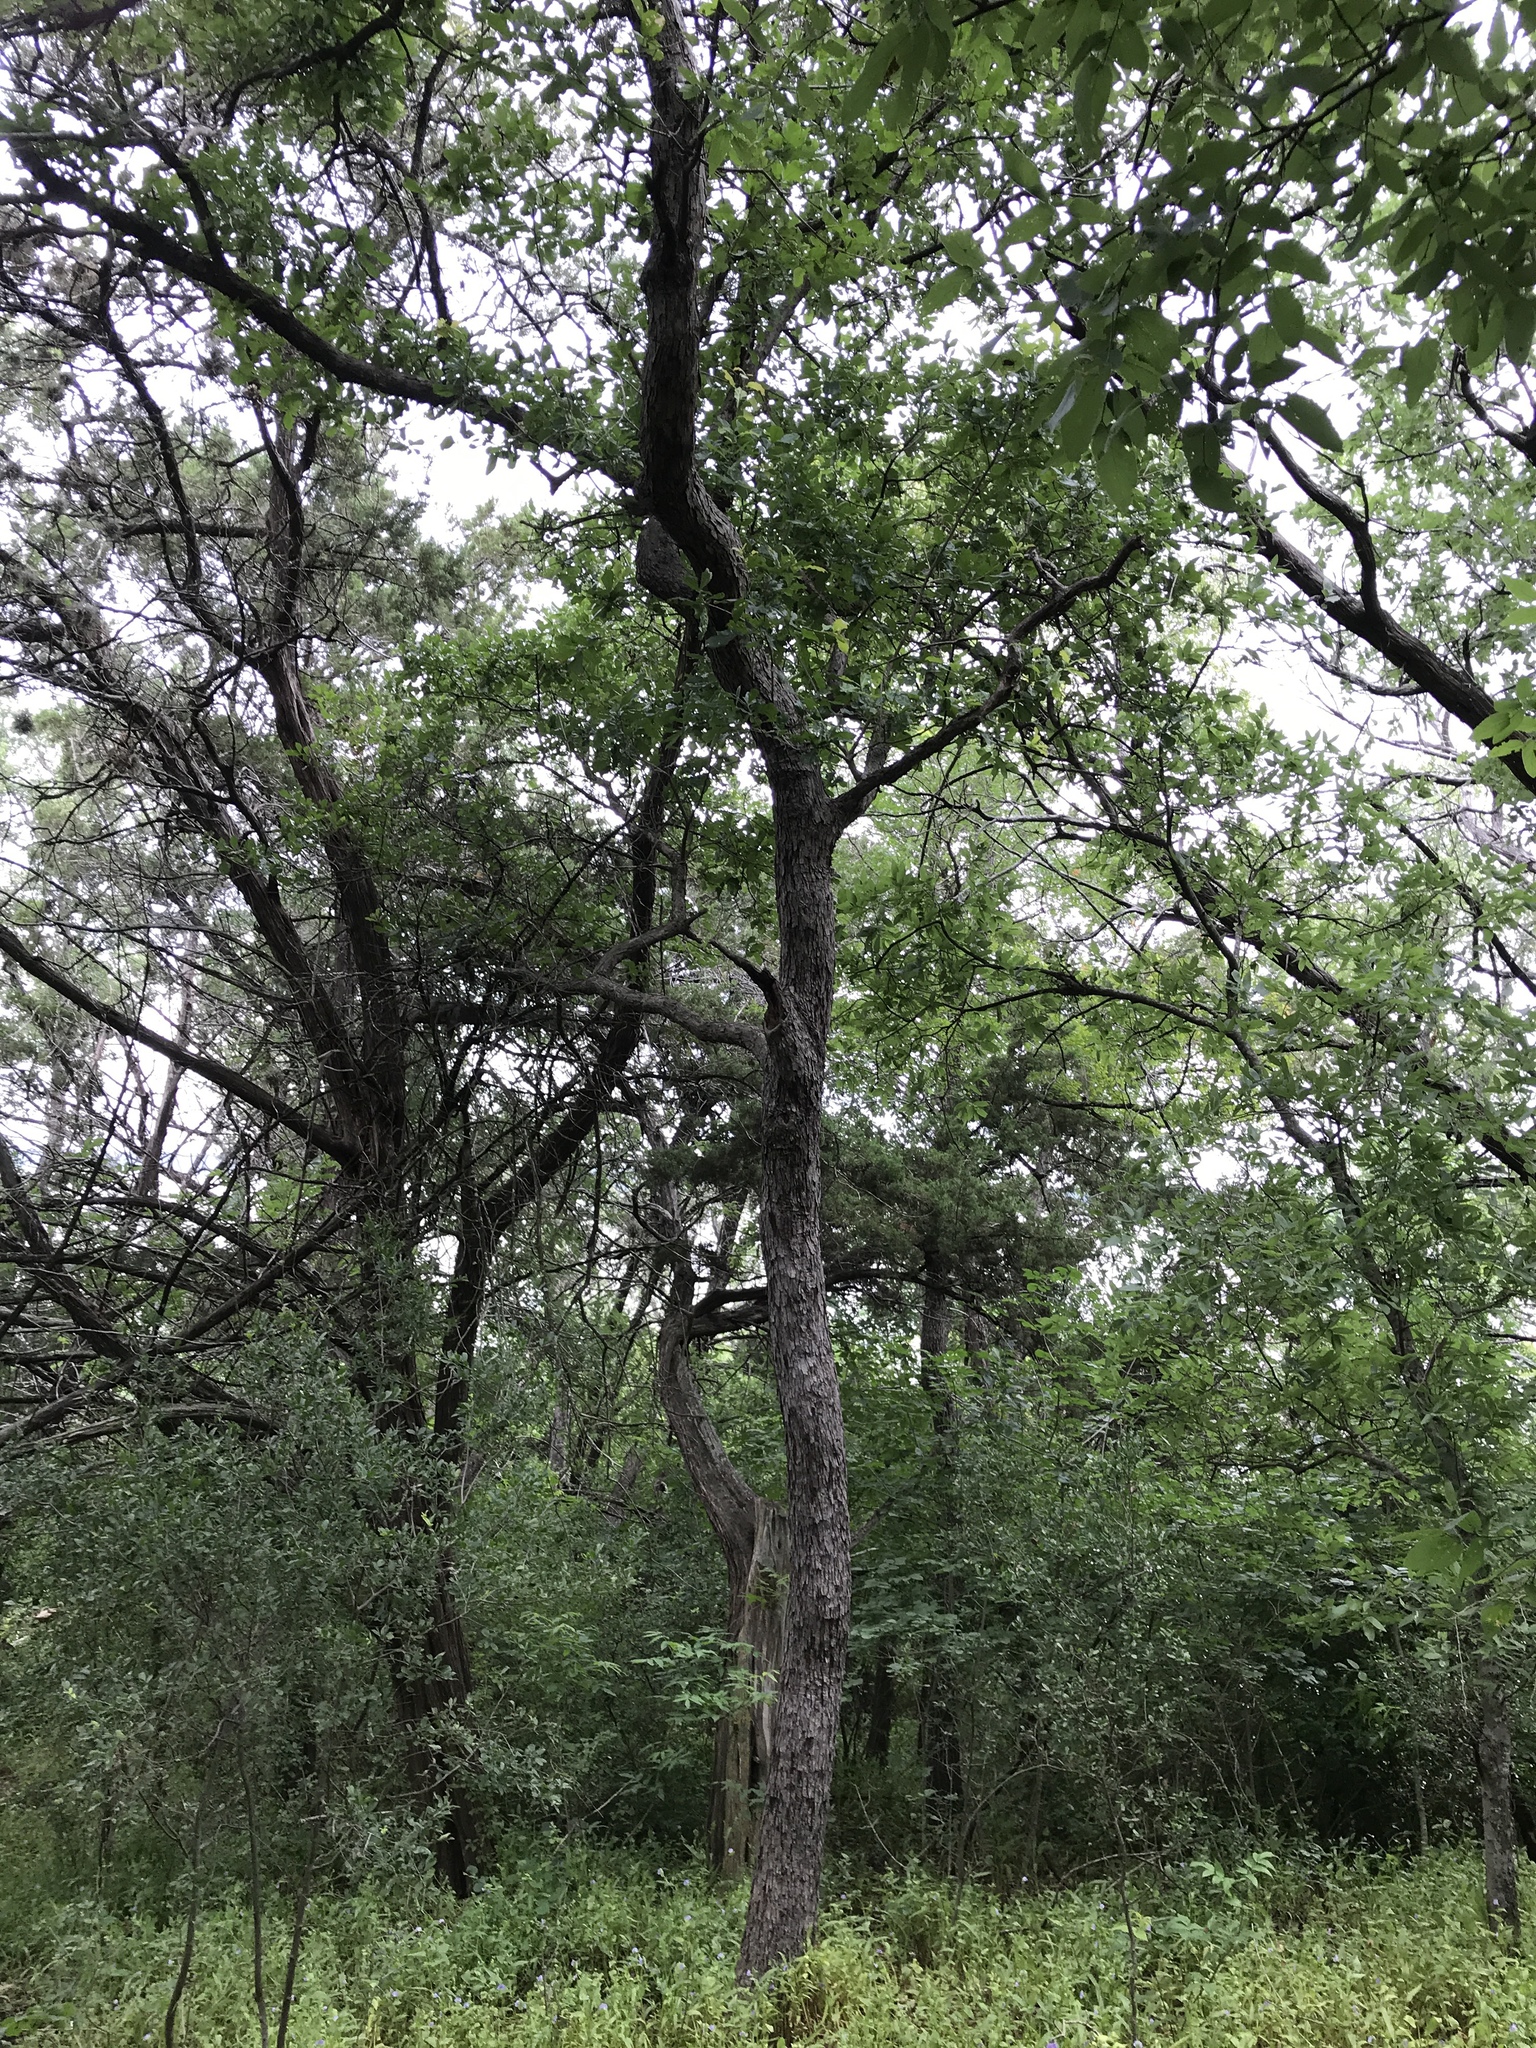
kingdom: Plantae
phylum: Tracheophyta
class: Magnoliopsida
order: Fagales
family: Fagaceae
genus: Quercus
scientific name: Quercus sinuata
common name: Durand oak
